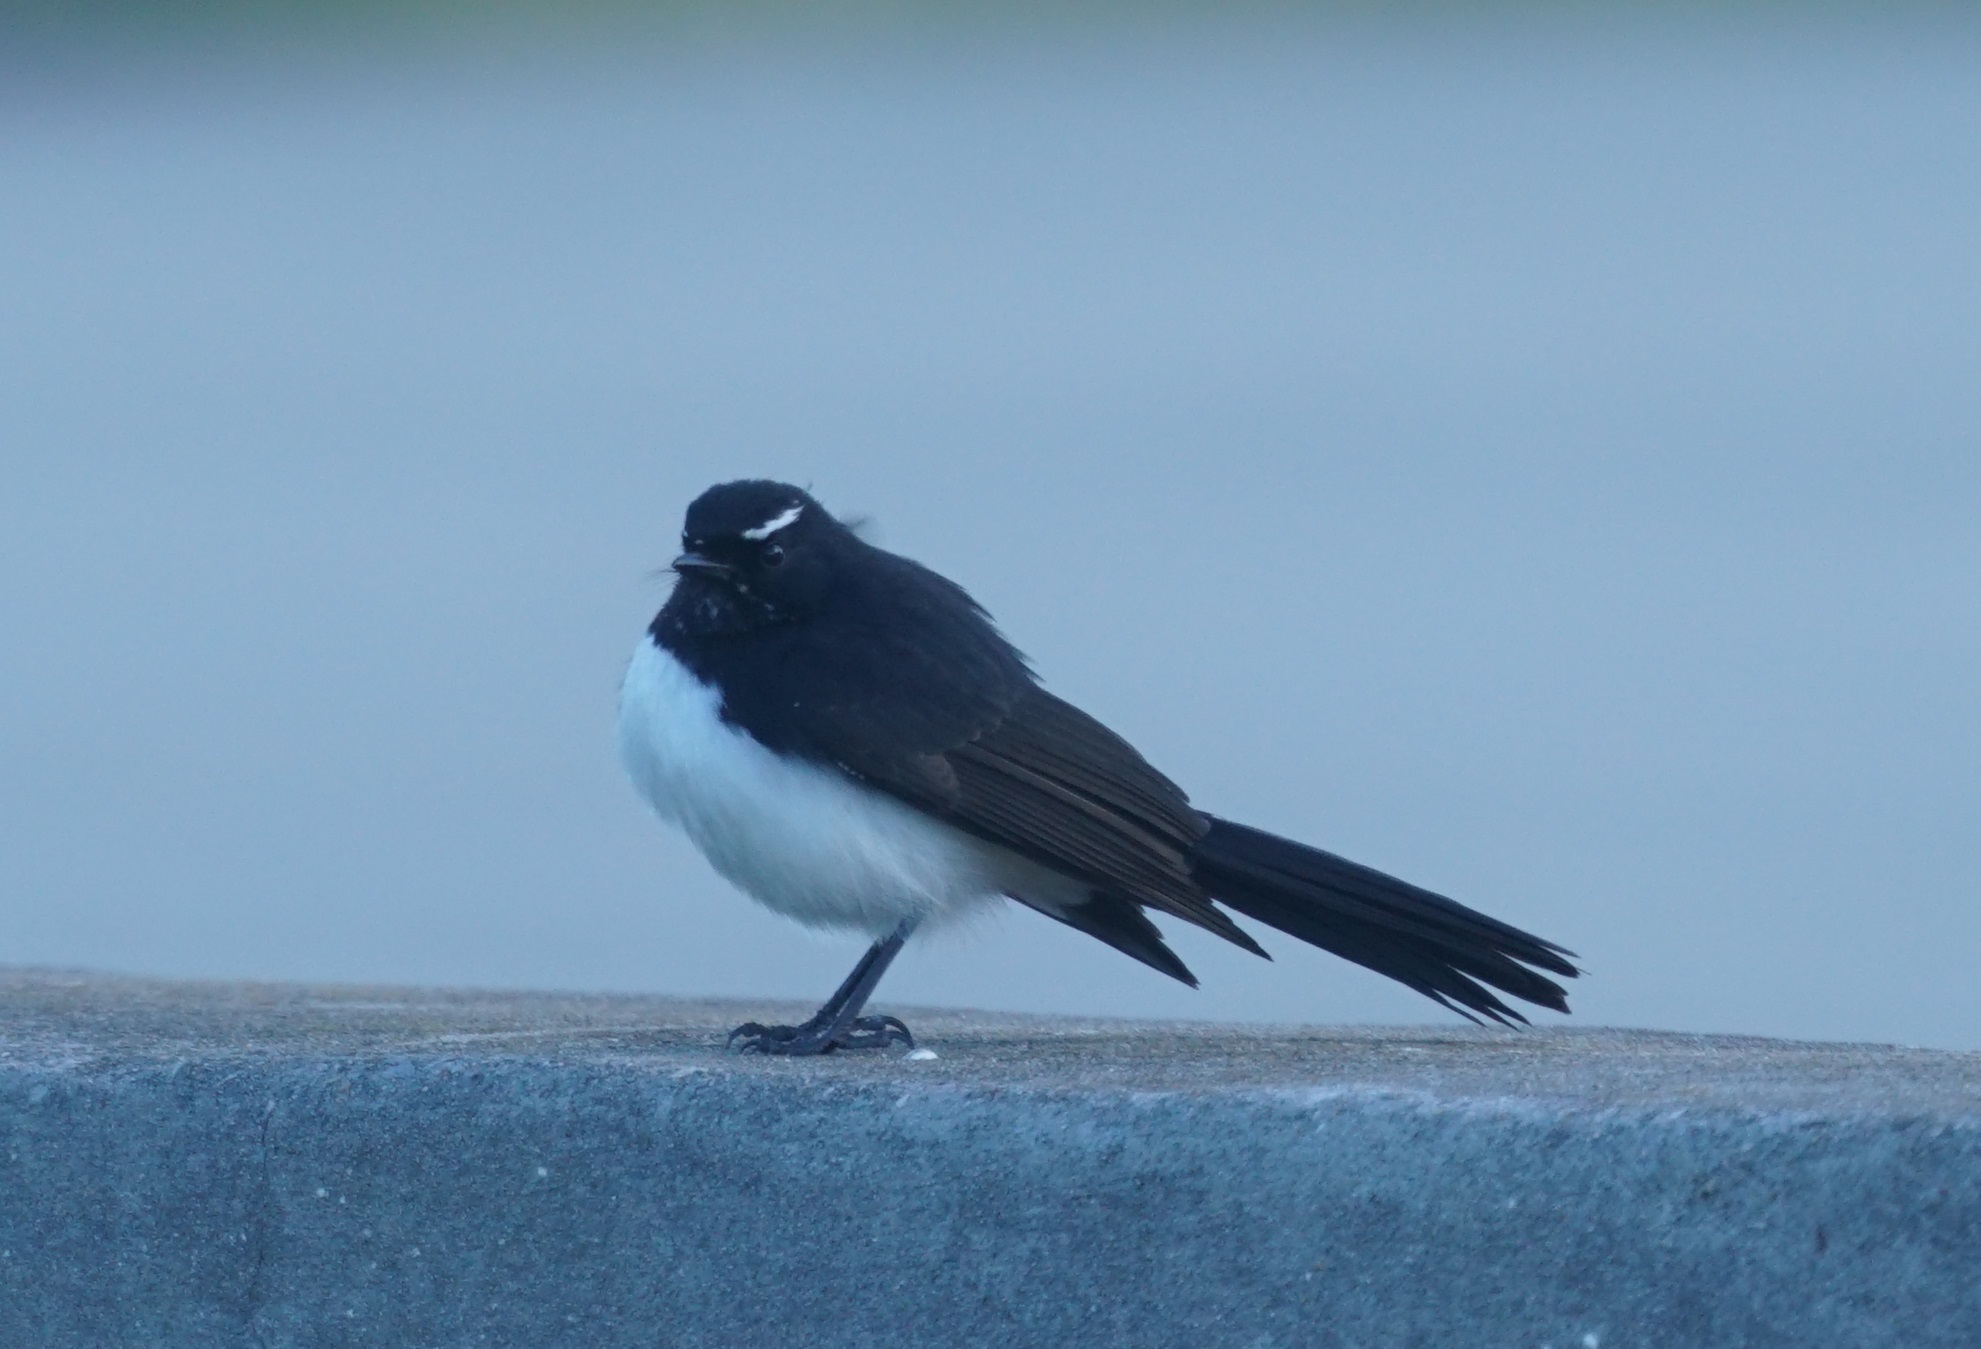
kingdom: Animalia
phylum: Chordata
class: Aves
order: Passeriformes
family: Rhipiduridae
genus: Rhipidura
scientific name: Rhipidura leucophrys
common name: Willie wagtail
